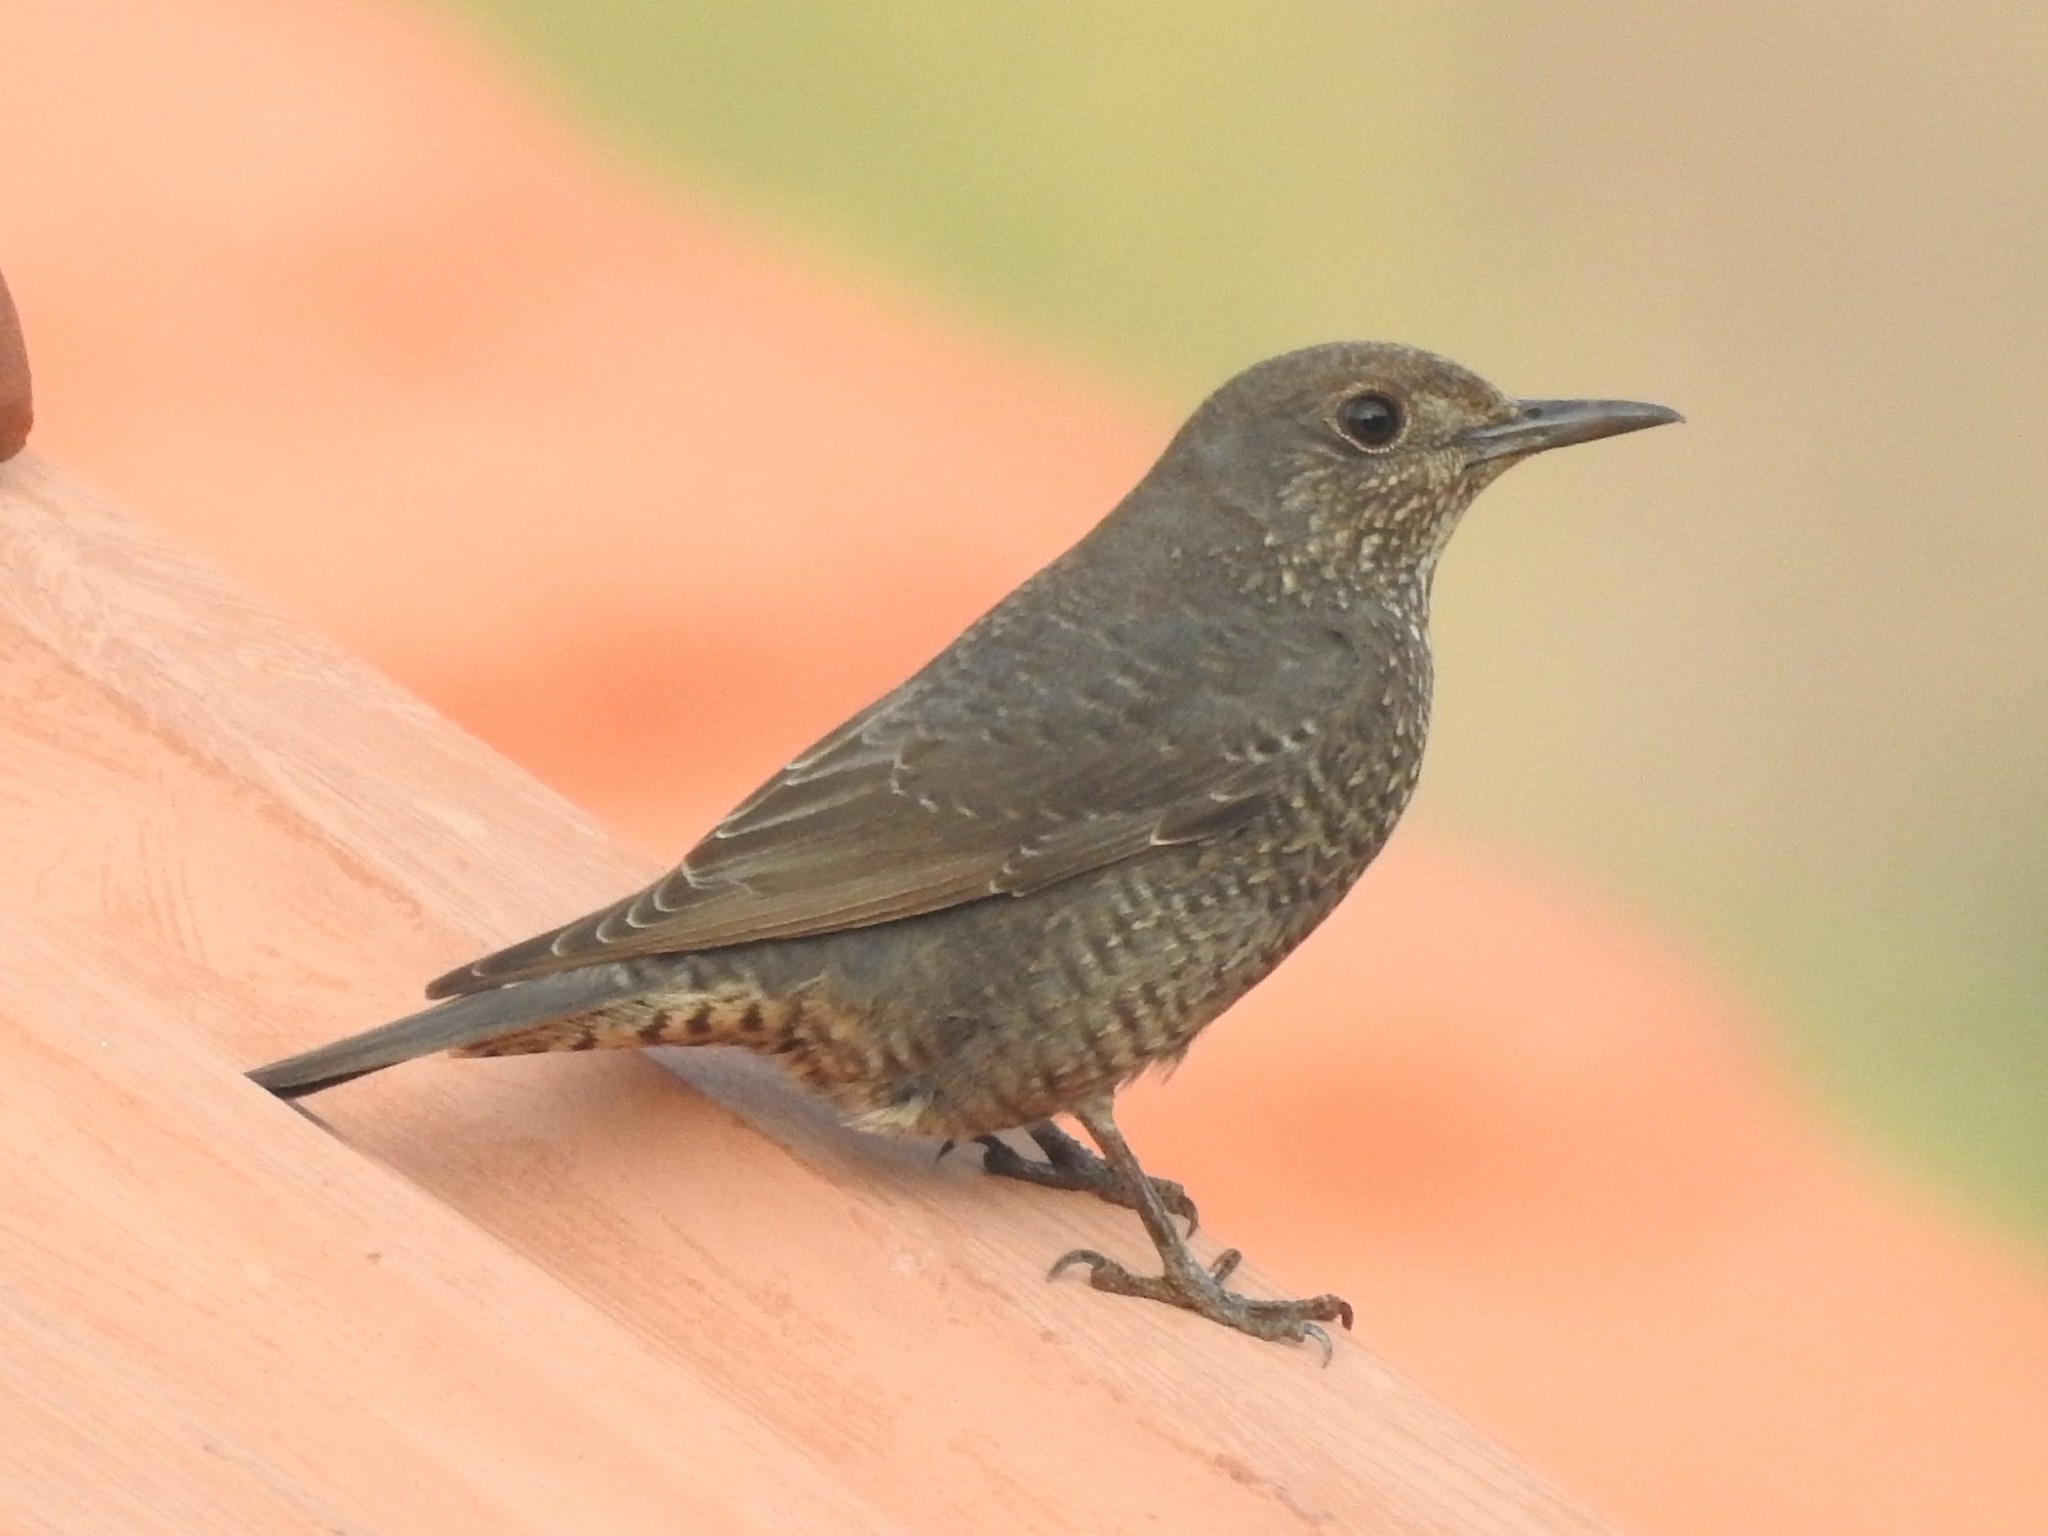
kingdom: Animalia
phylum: Chordata
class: Aves
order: Passeriformes
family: Muscicapidae
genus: Monticola
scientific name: Monticola solitarius
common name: Blue rock thrush
